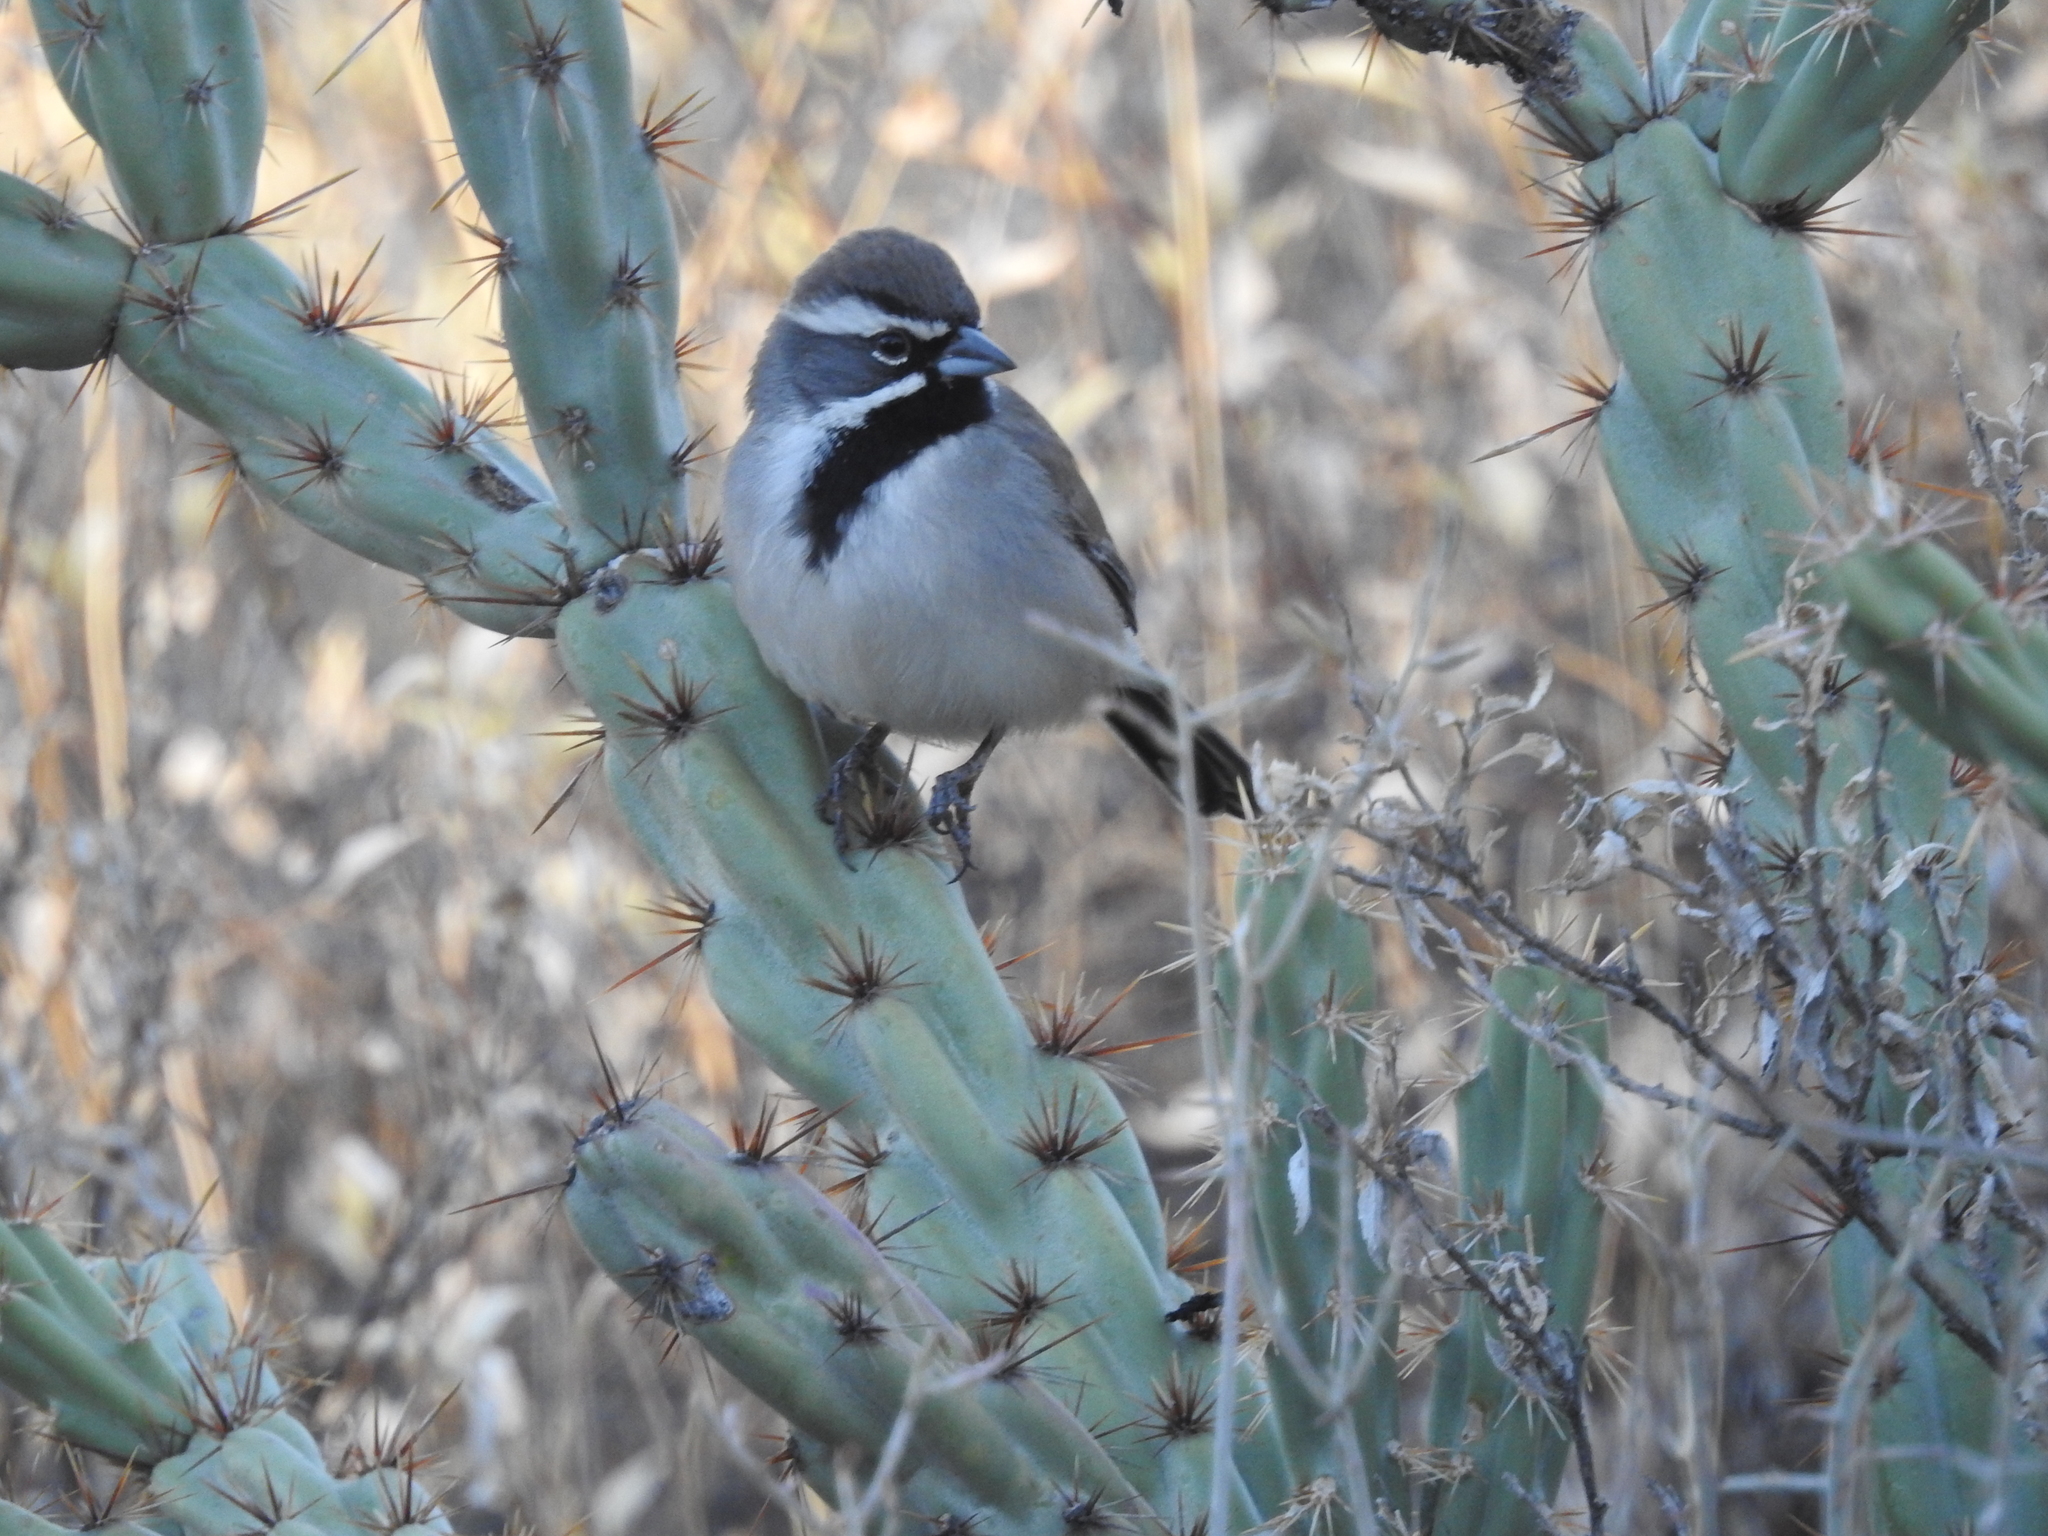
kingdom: Animalia
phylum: Chordata
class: Aves
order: Passeriformes
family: Passerellidae
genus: Amphispiza
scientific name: Amphispiza bilineata
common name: Black-throated sparrow
